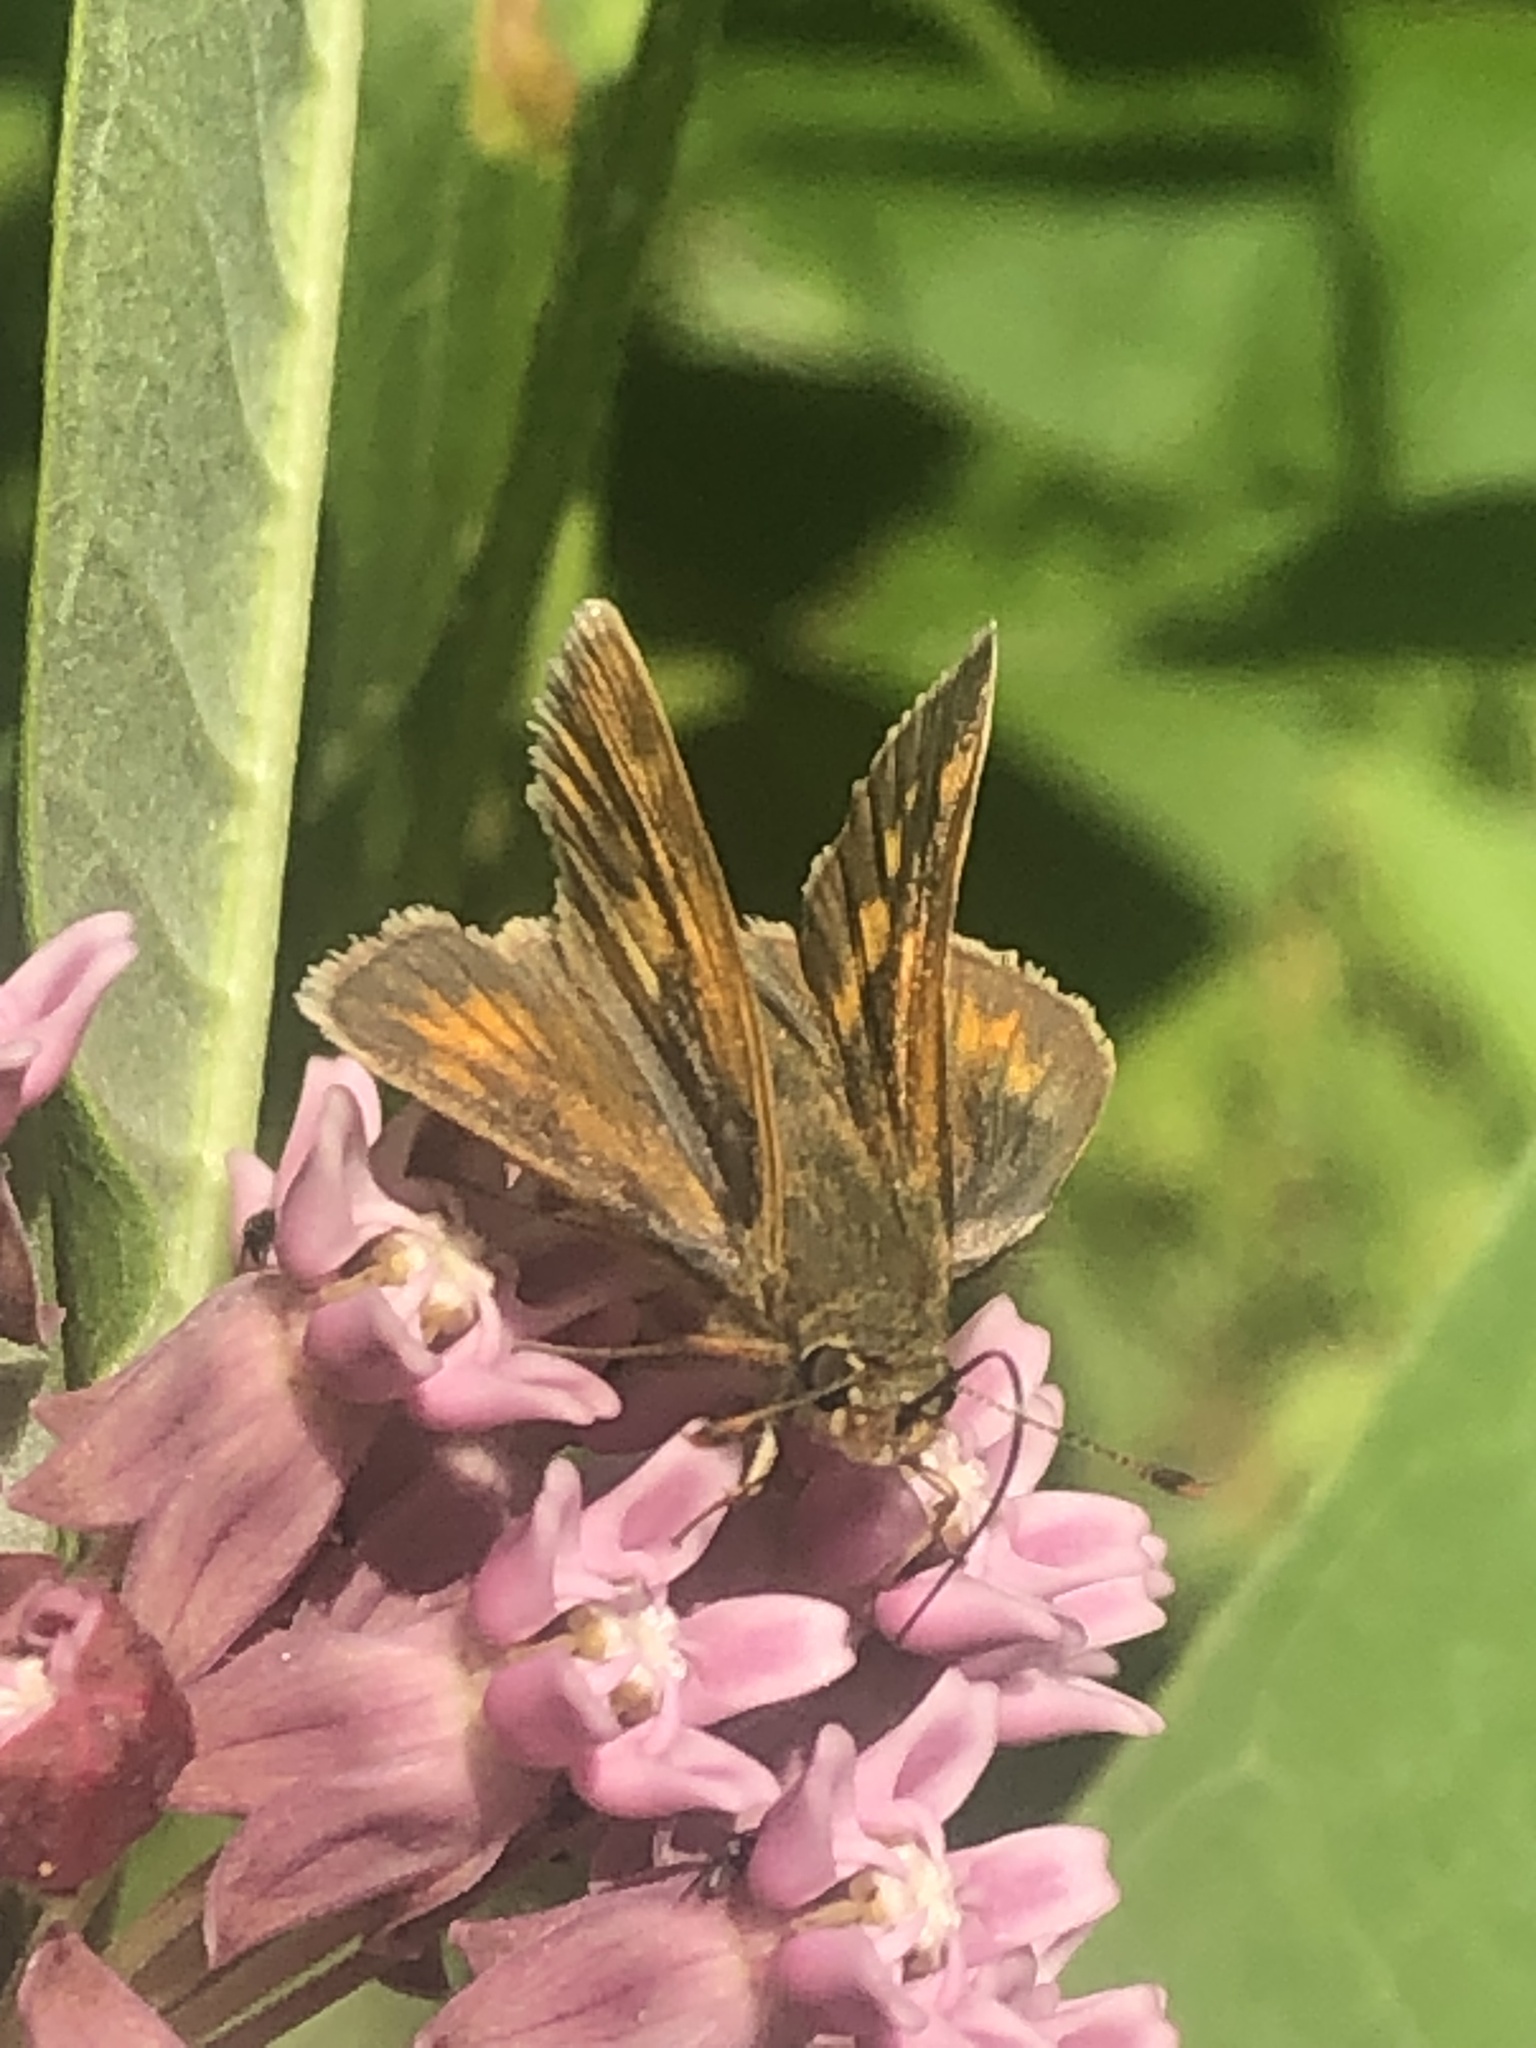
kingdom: Animalia
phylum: Arthropoda
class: Insecta
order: Lepidoptera
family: Hesperiidae
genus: Polites
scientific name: Polites mystic
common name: Long dash
